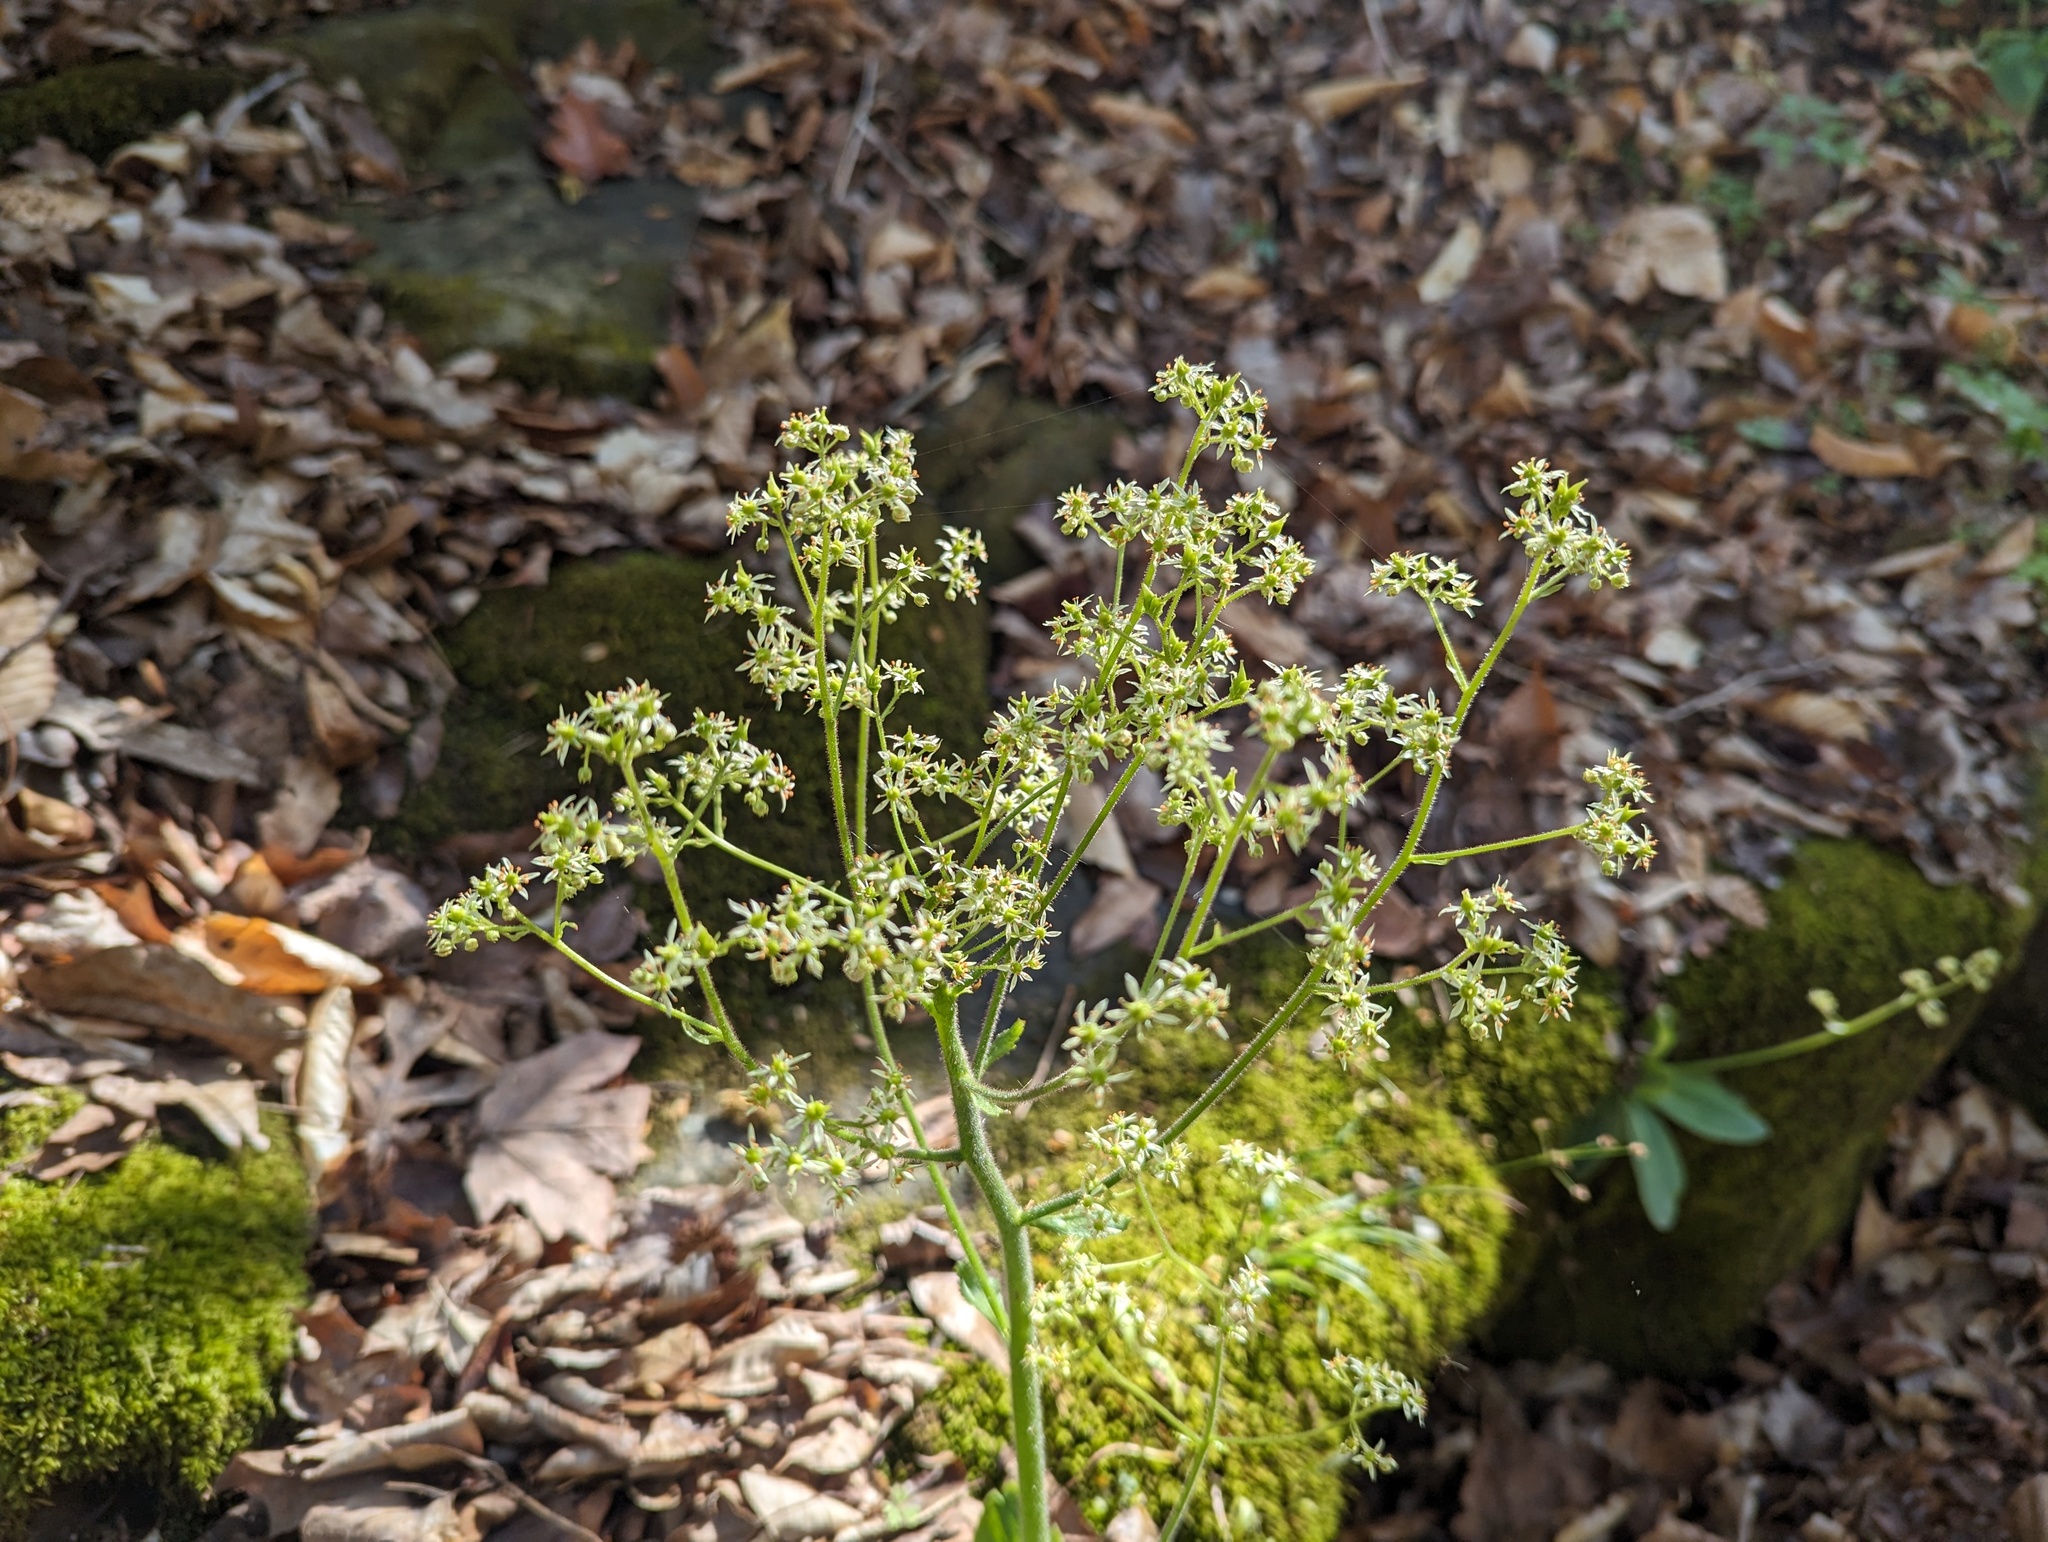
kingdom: Plantae
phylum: Tracheophyta
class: Magnoliopsida
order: Saxifragales
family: Saxifragaceae
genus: Micranthes
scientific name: Micranthes pensylvanica
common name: Marsh saxifrage
